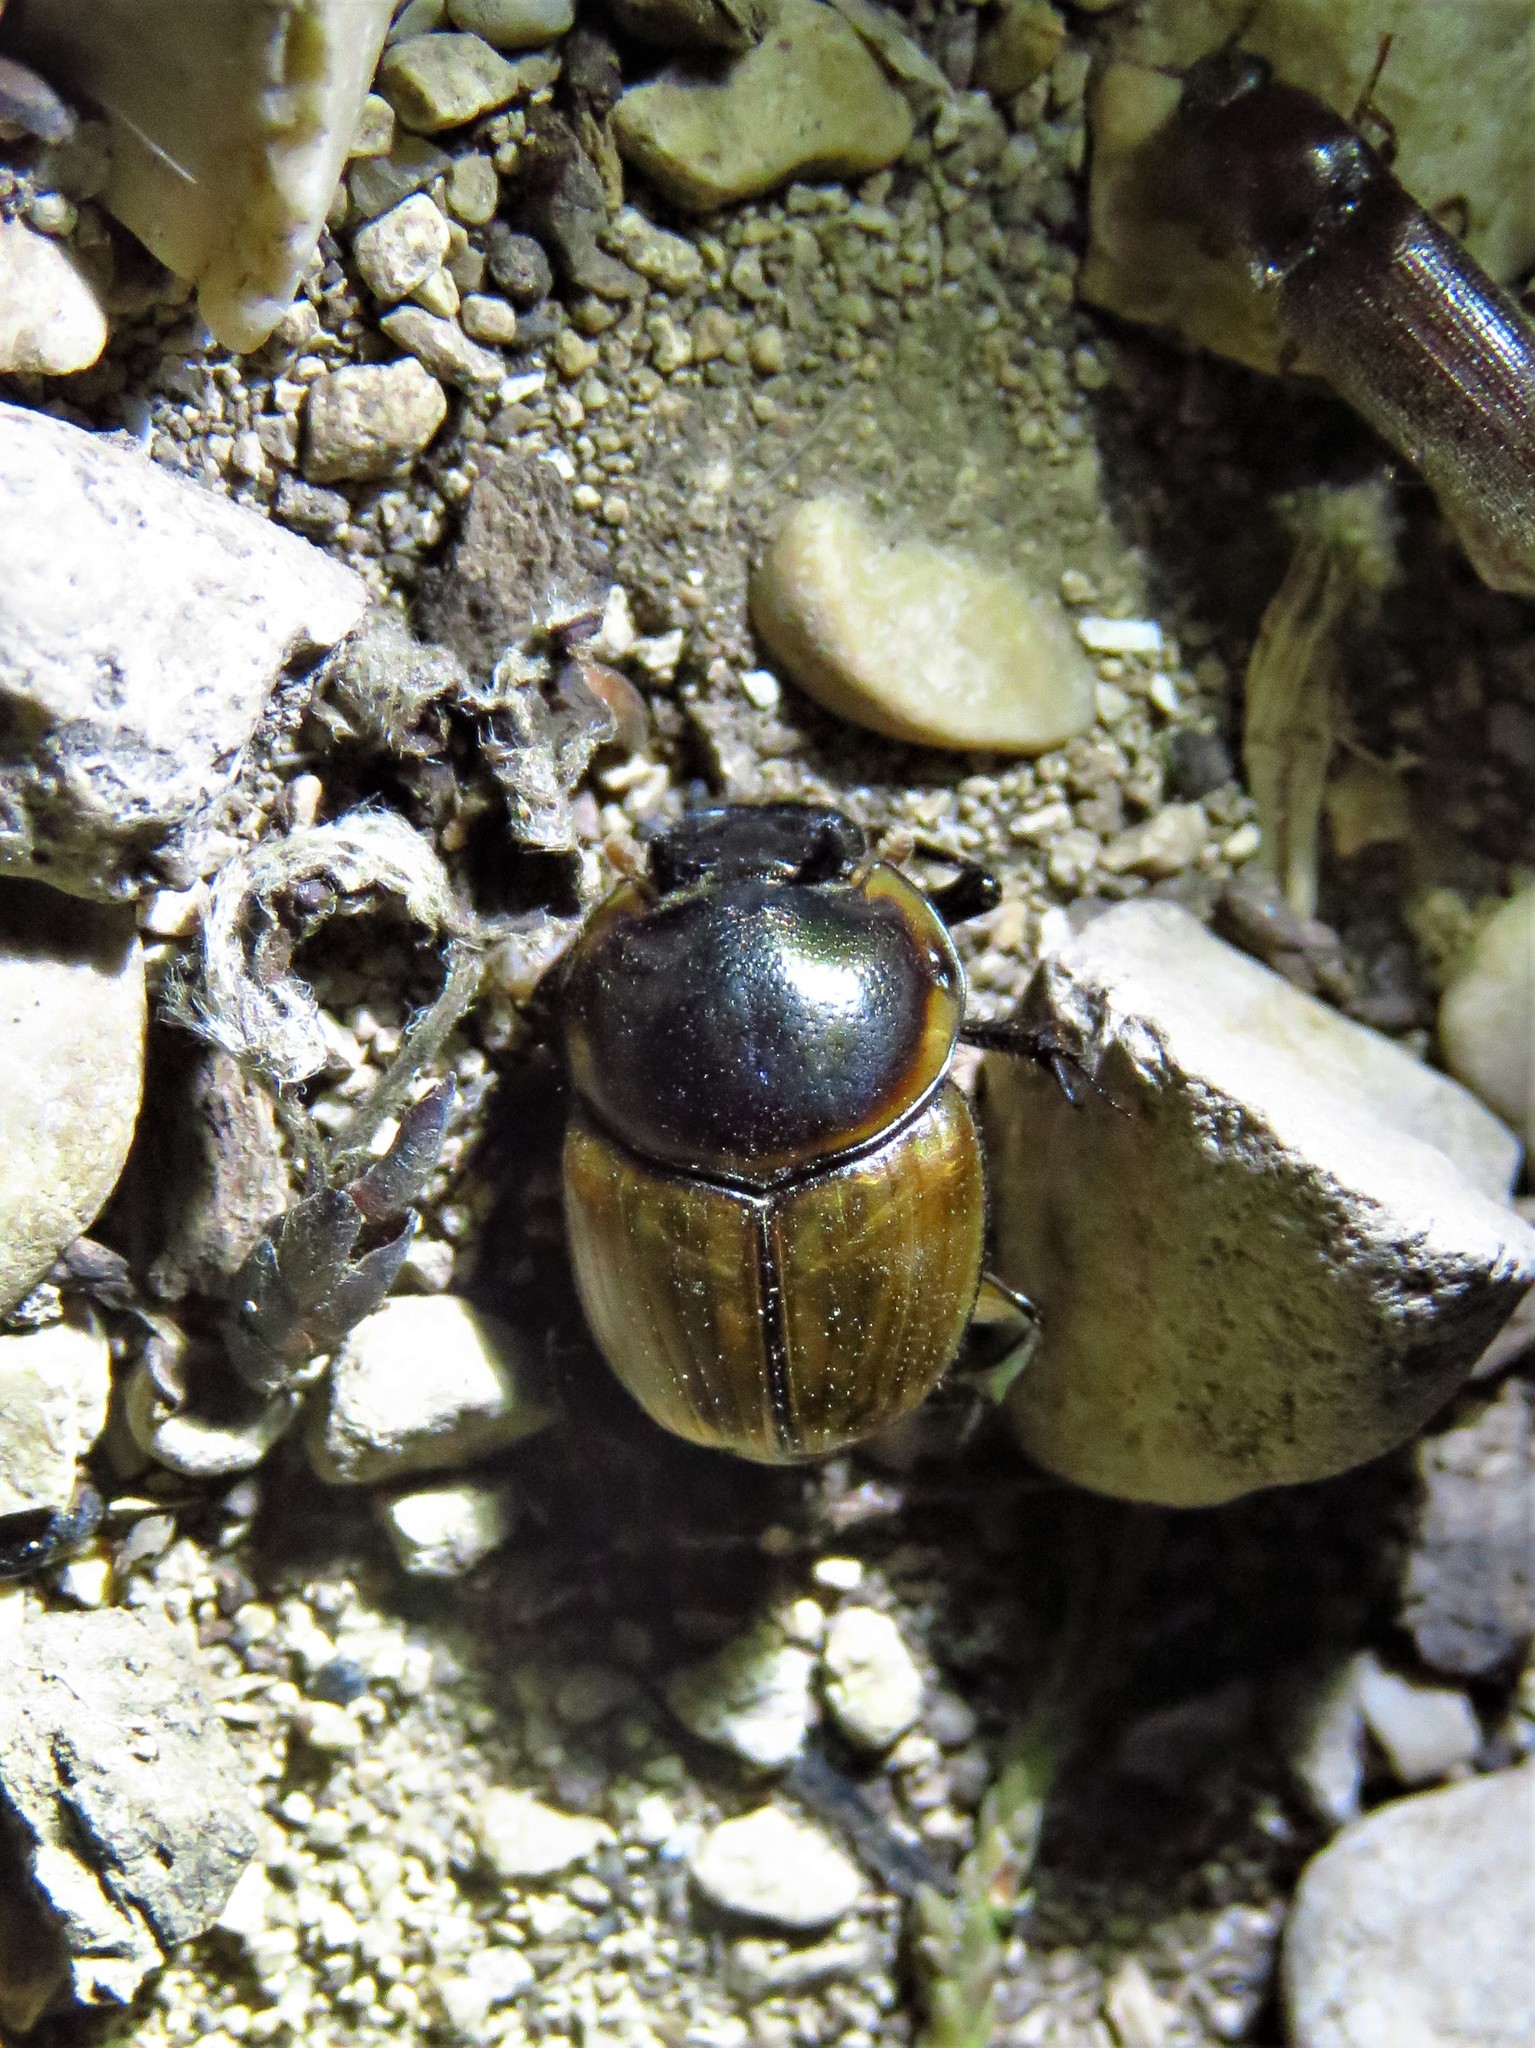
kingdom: Animalia
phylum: Arthropoda
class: Insecta
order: Coleoptera
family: Scarabaeidae
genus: Digitonthophagus
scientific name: Digitonthophagus gazella
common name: Brown dung beetle
